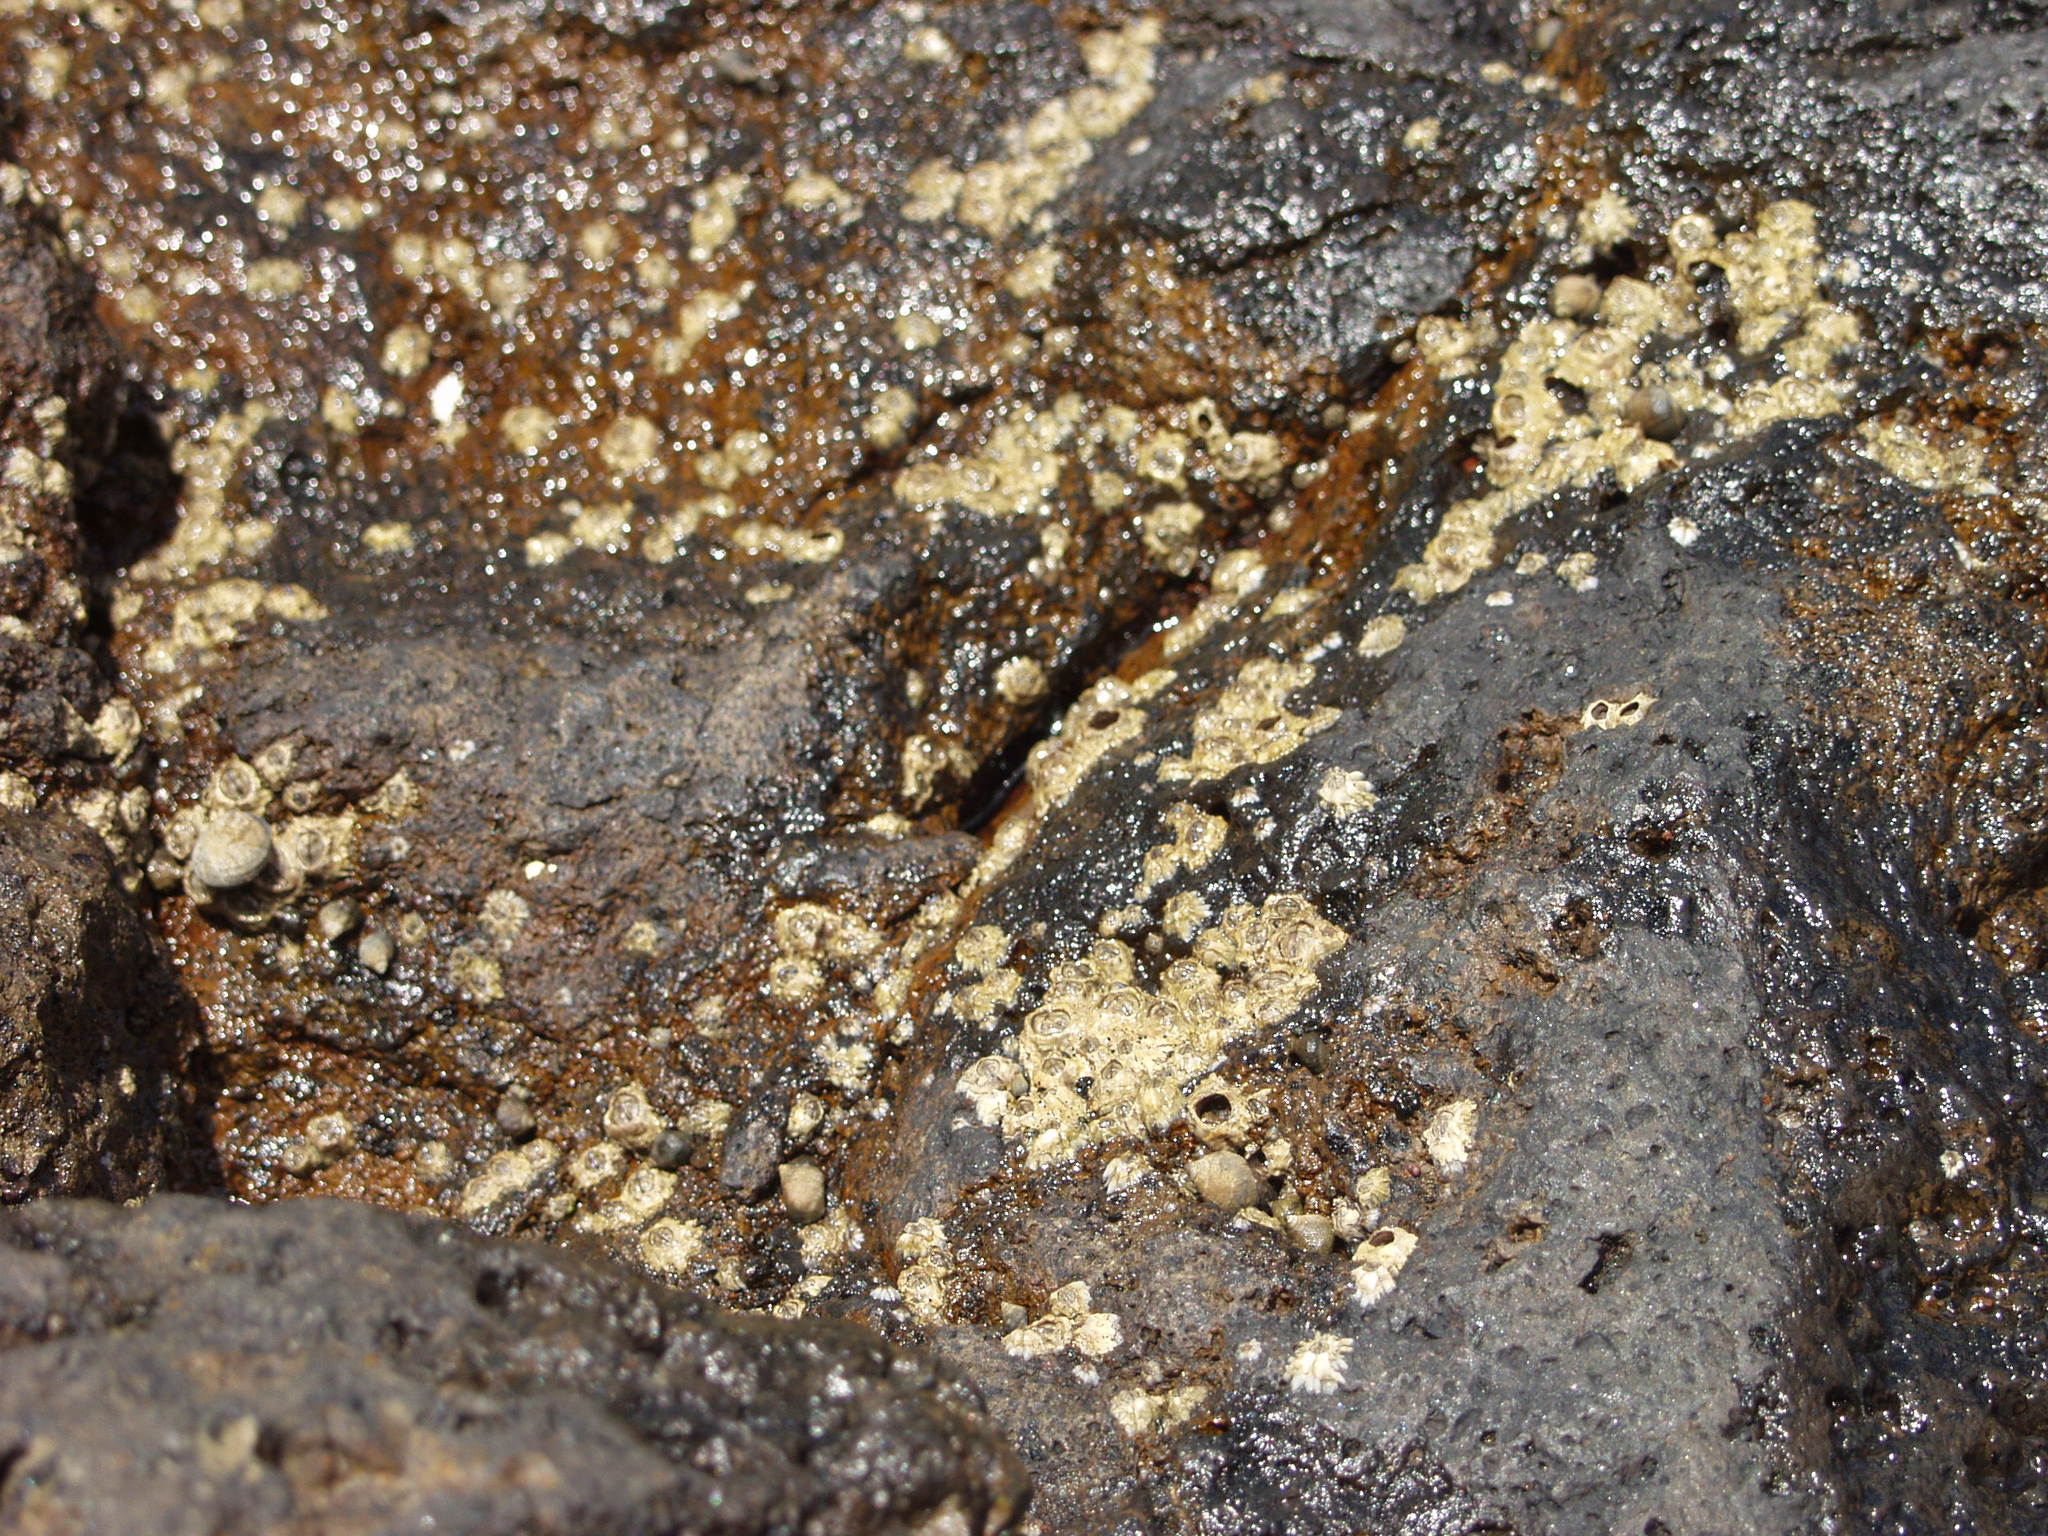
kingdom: Animalia
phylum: Arthropoda
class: Maxillopoda
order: Sessilia
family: Chthamalidae
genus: Chthamalus
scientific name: Chthamalus stellatus
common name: Poli's stellate barnacle
